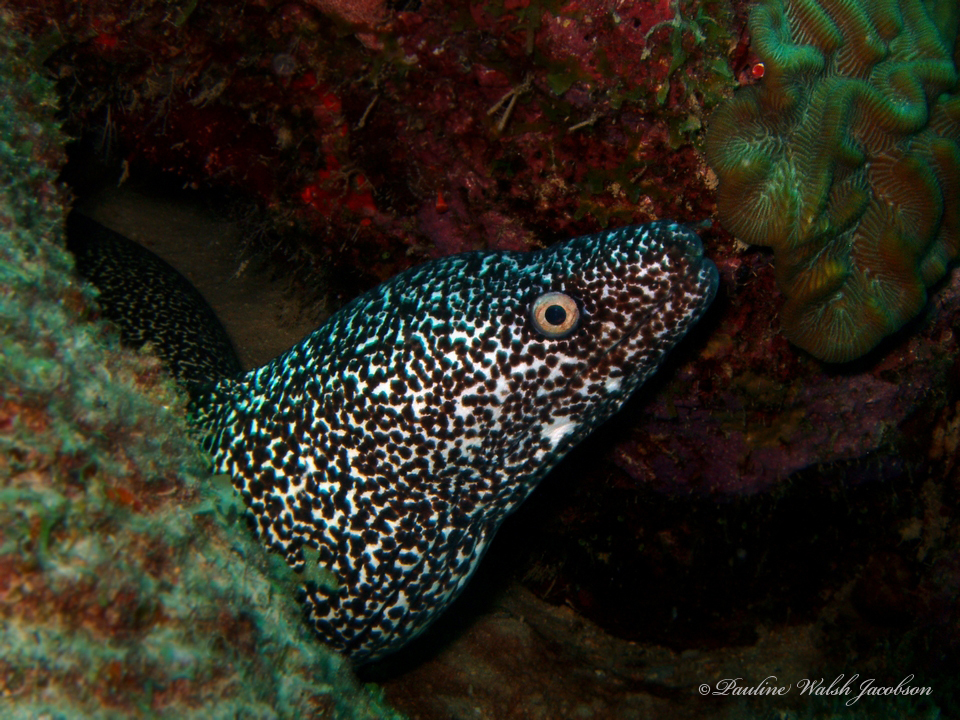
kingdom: Animalia
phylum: Chordata
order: Anguilliformes
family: Muraenidae
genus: Gymnothorax
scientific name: Gymnothorax moringa
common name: Spotted moray
